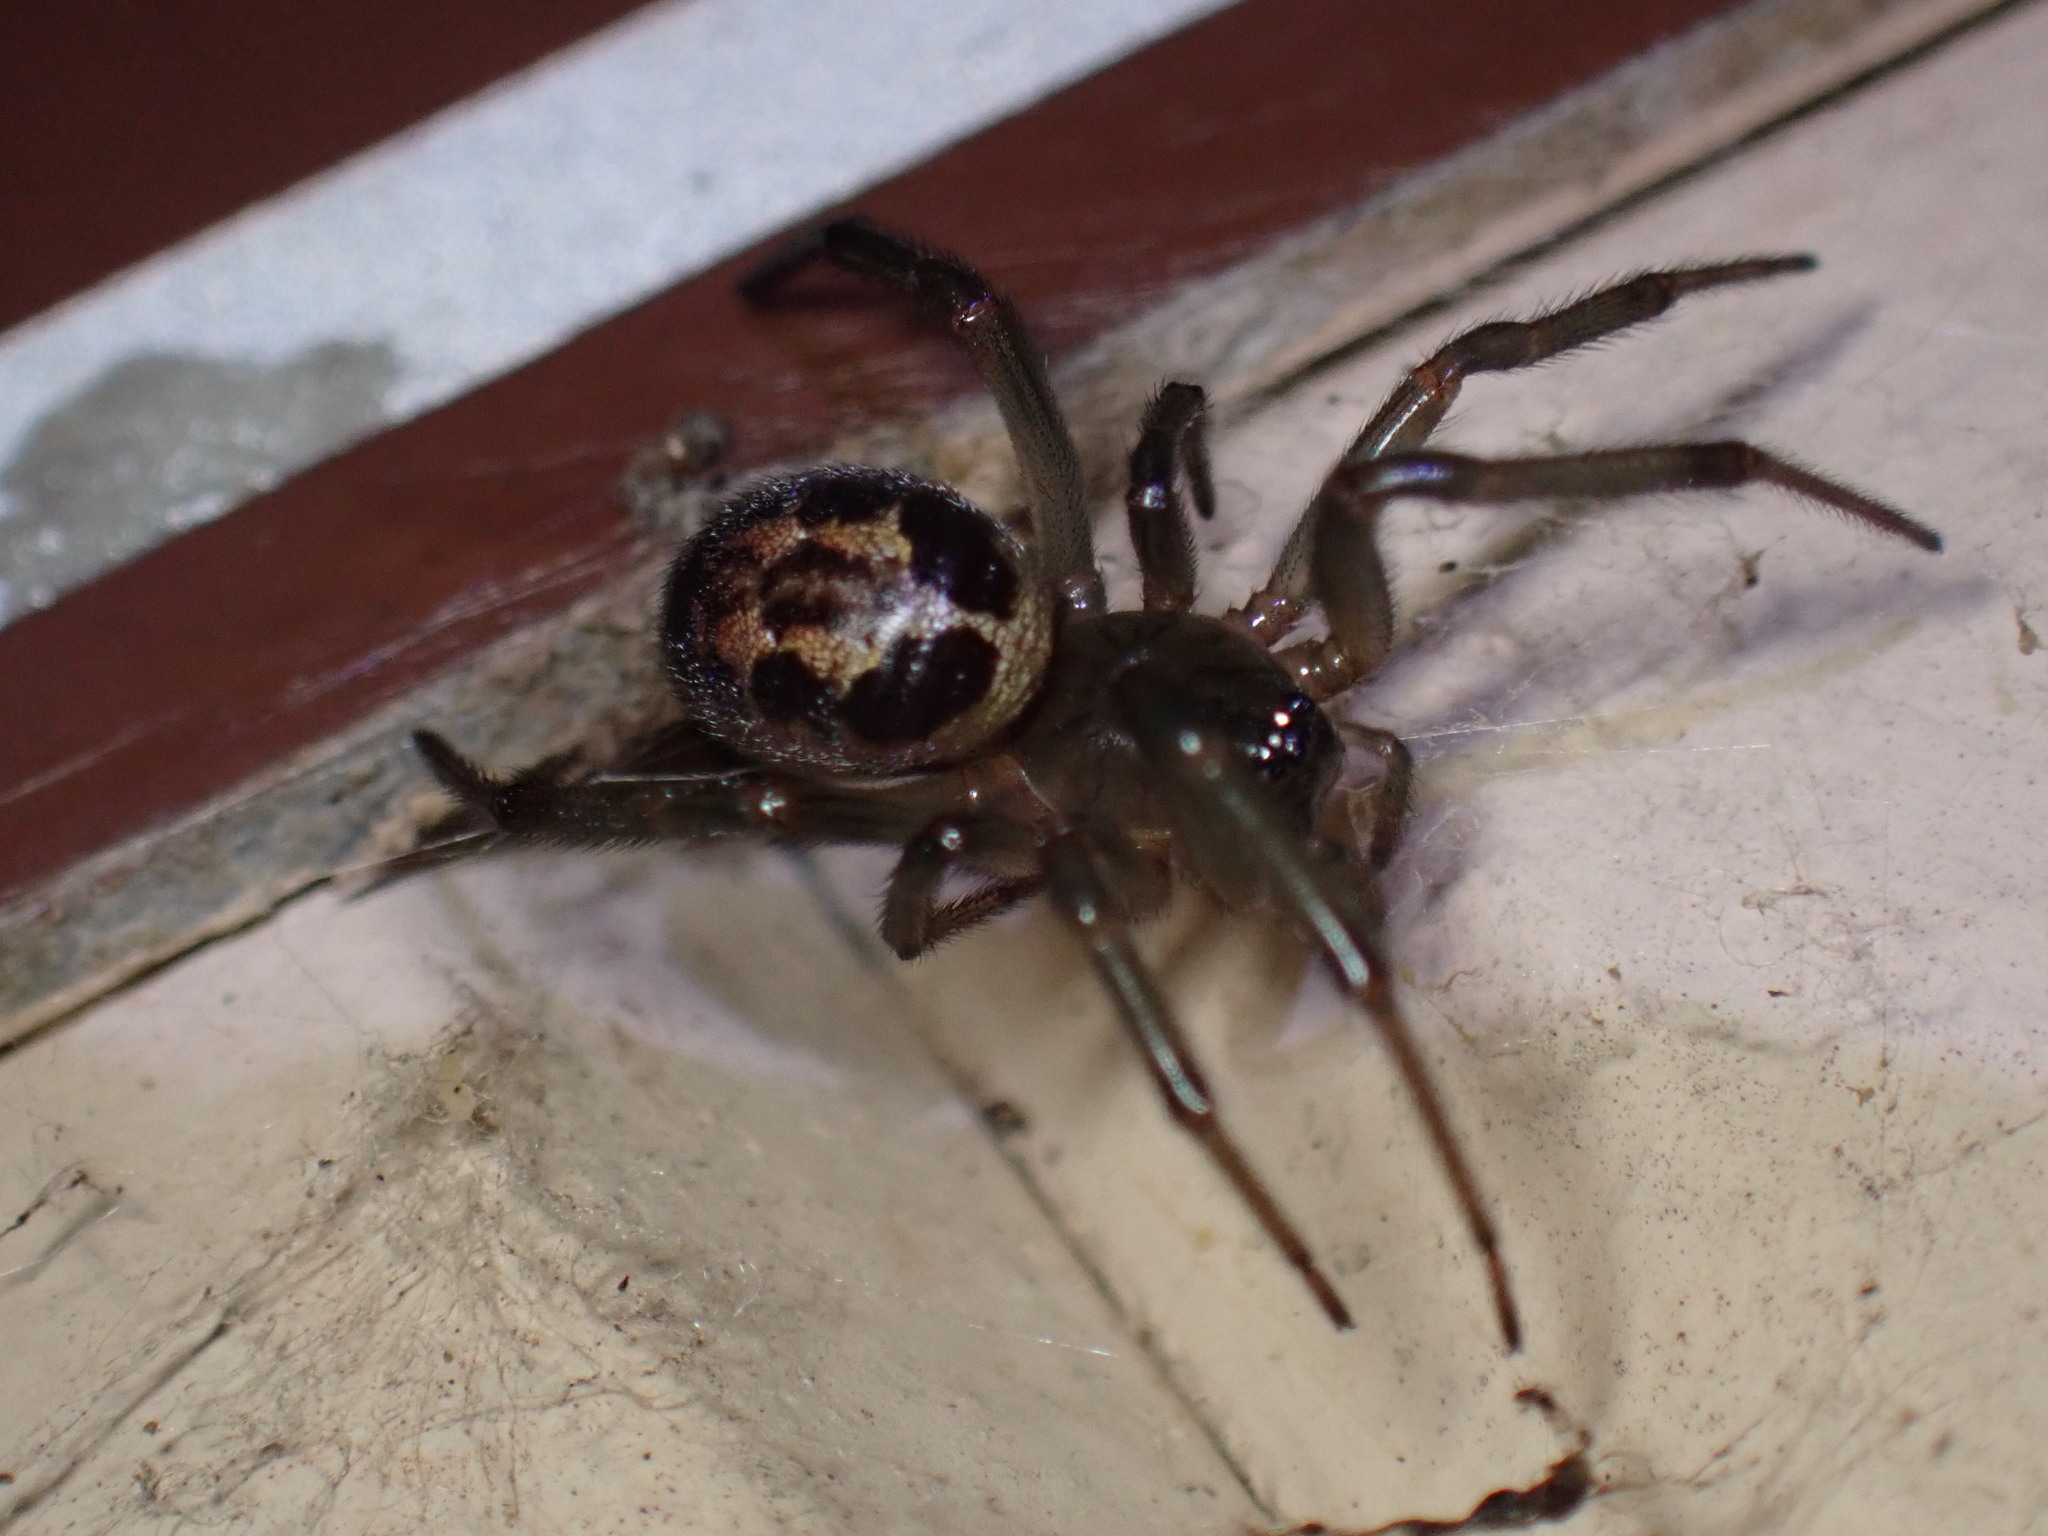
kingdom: Animalia
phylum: Arthropoda
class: Arachnida
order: Araneae
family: Theridiidae
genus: Steatoda
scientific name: Steatoda nobilis
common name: Cobweb weaver
